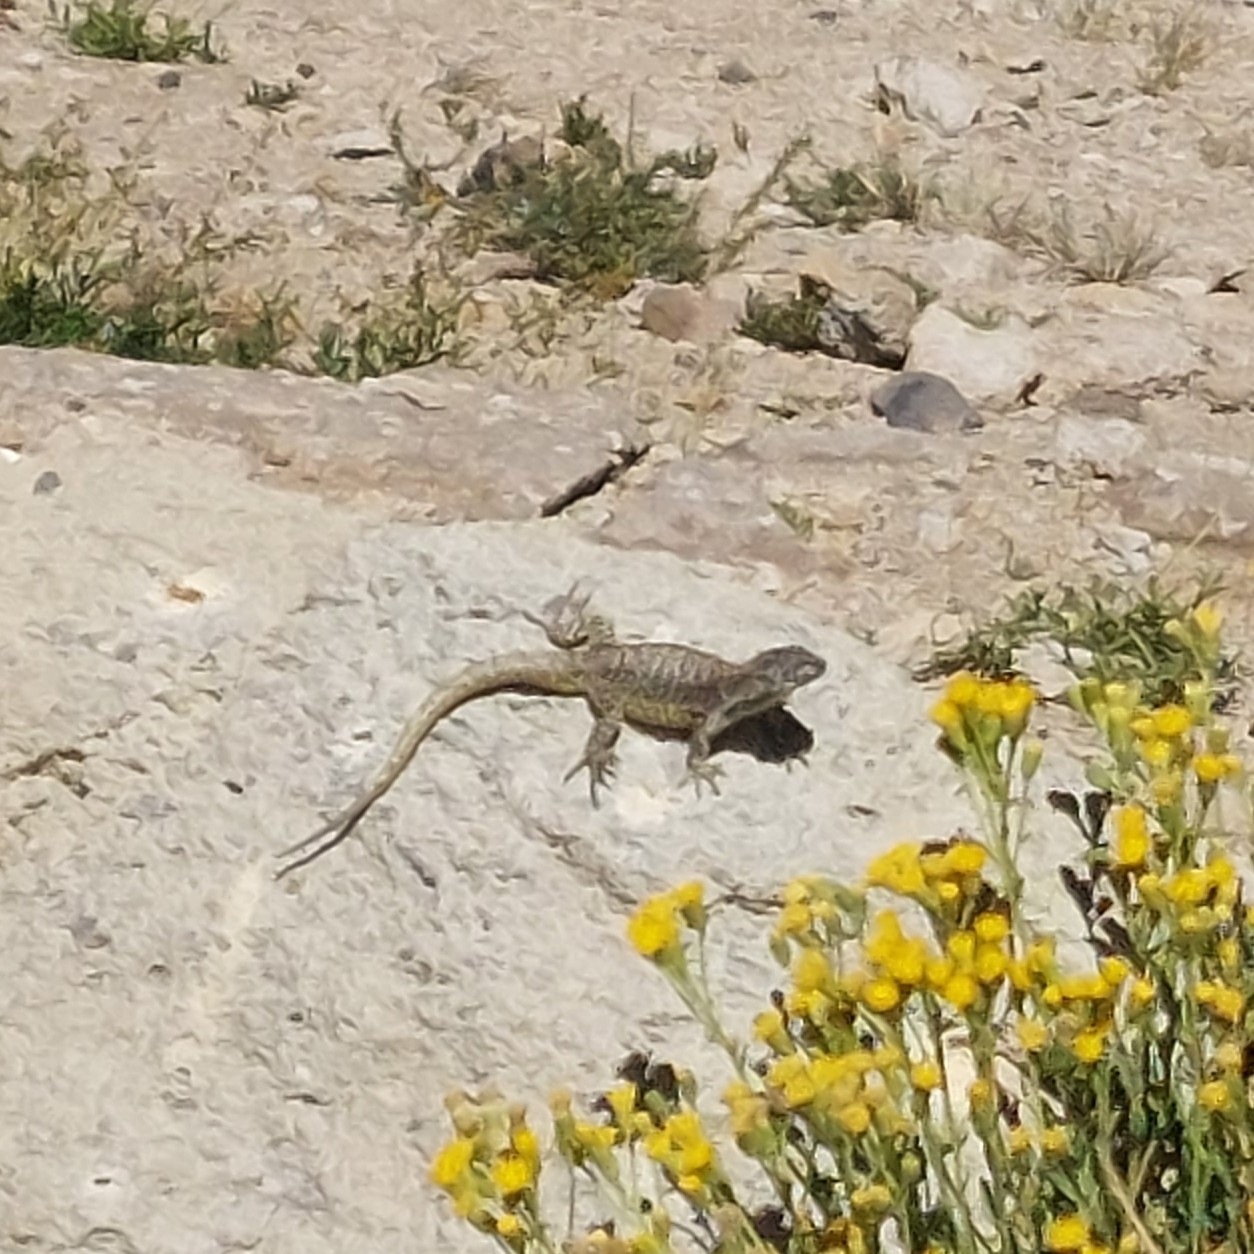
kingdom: Animalia
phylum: Chordata
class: Squamata
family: Liolaemidae
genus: Liolaemus
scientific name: Liolaemus flavipiceus
